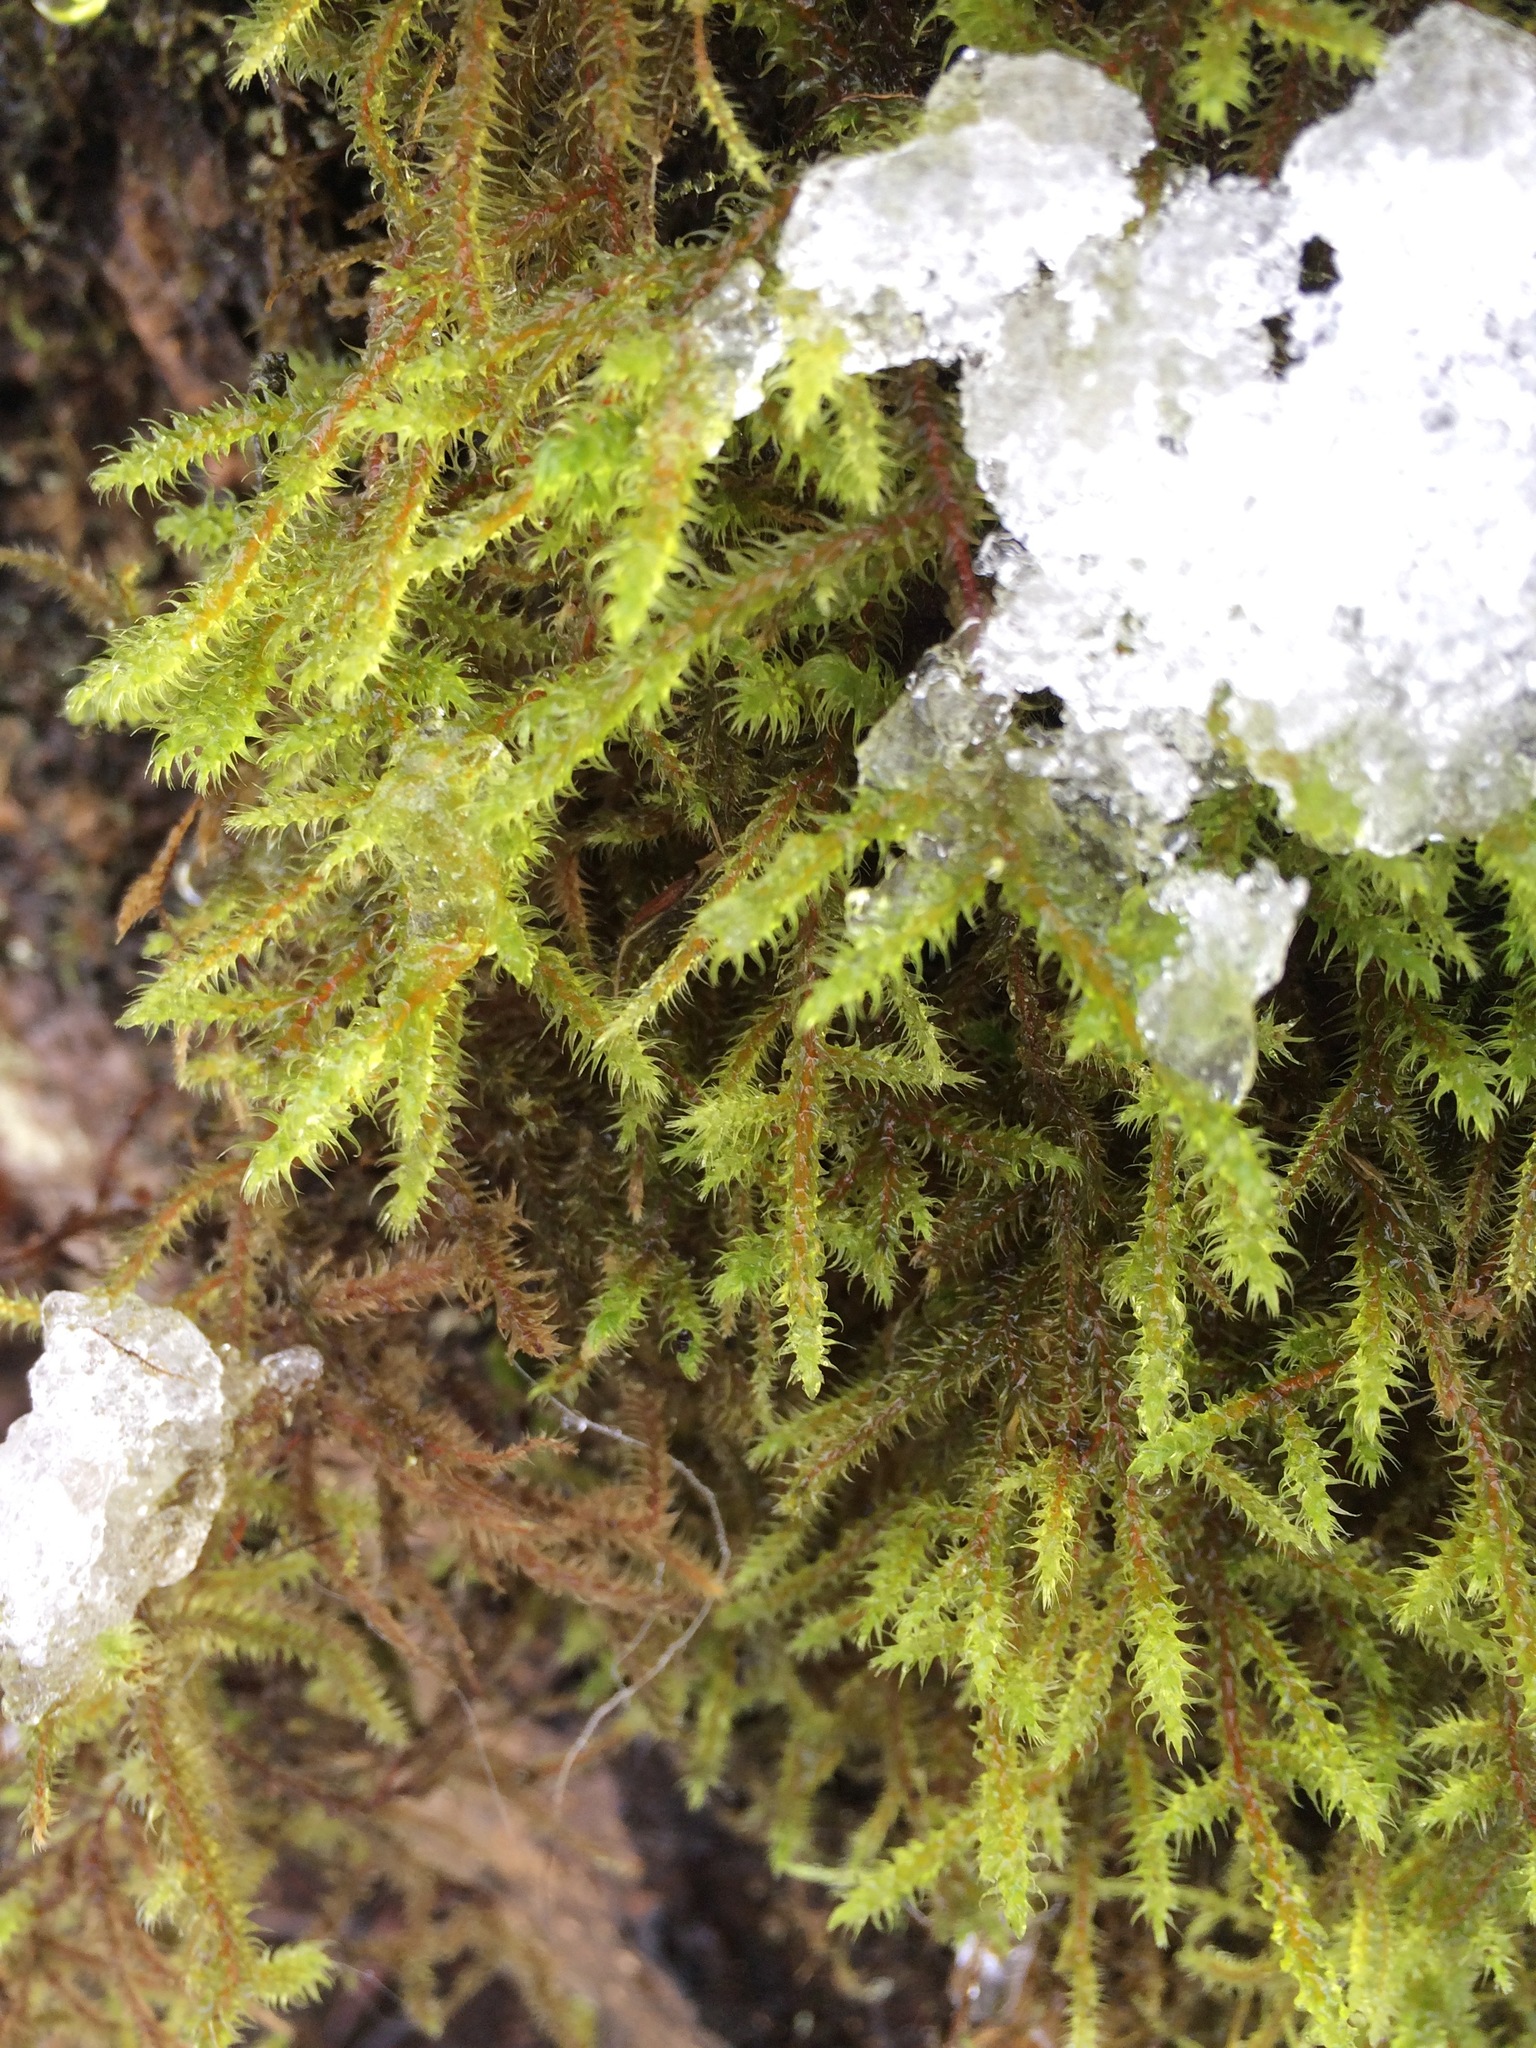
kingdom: Plantae
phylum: Bryophyta
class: Bryopsida
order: Hypnales
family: Hylocomiaceae
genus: Rhytidiadelphus
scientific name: Rhytidiadelphus loreus
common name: Lanky moss
